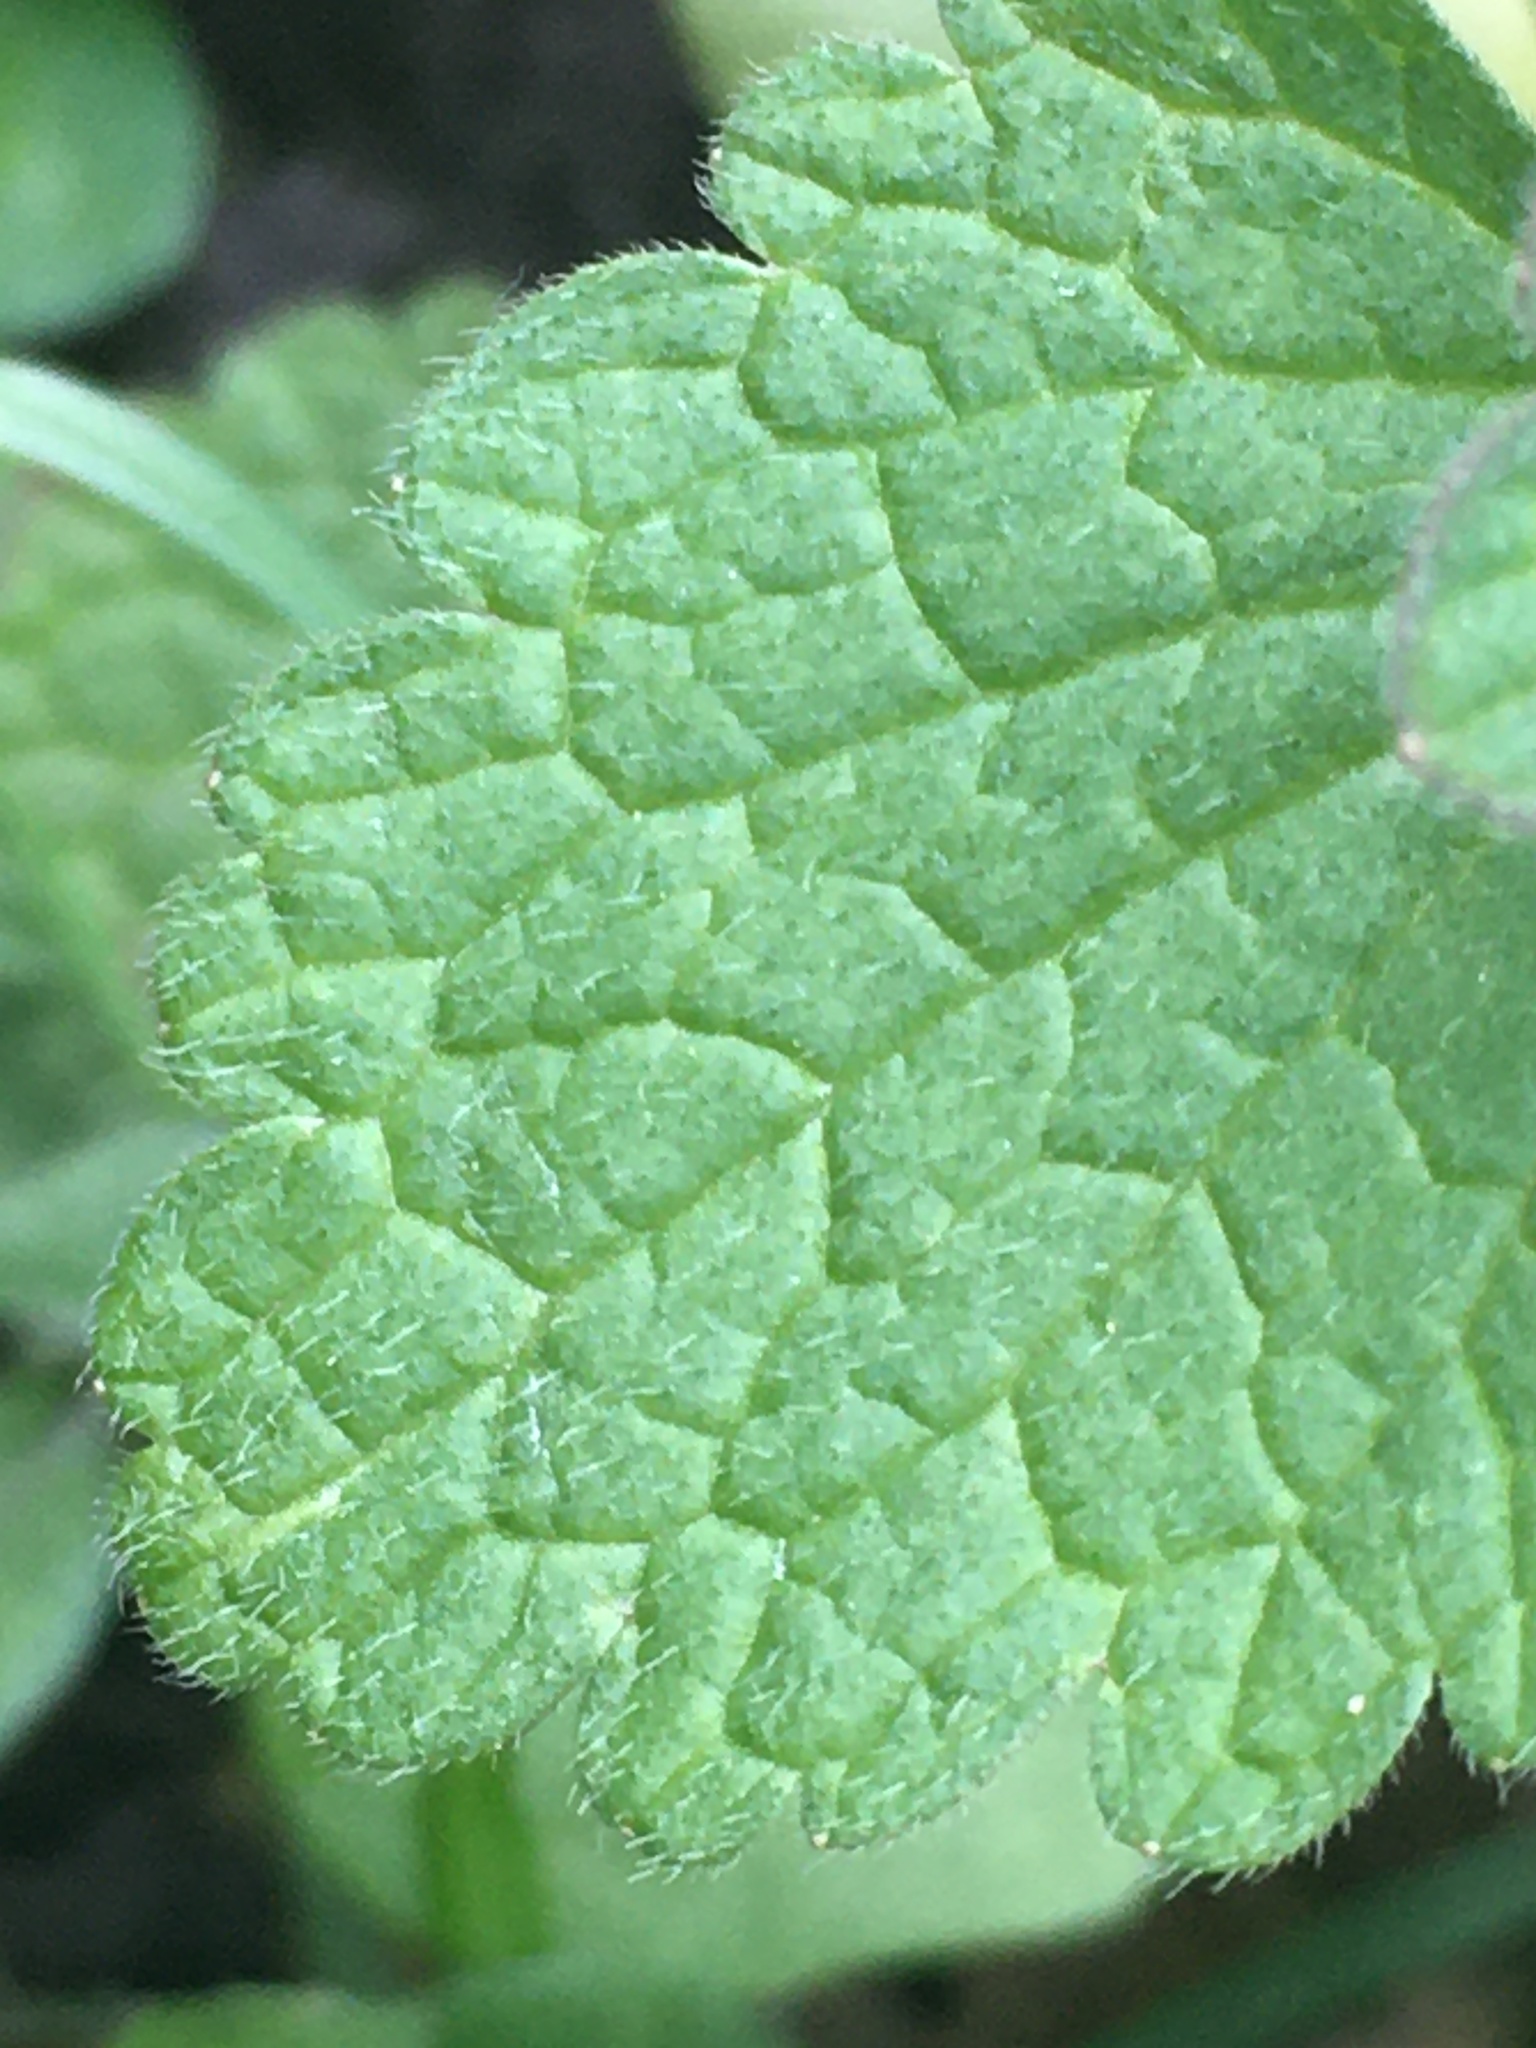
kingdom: Plantae
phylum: Tracheophyta
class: Magnoliopsida
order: Lamiales
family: Lamiaceae
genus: Lamium
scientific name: Lamium purpureum
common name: Red dead-nettle
